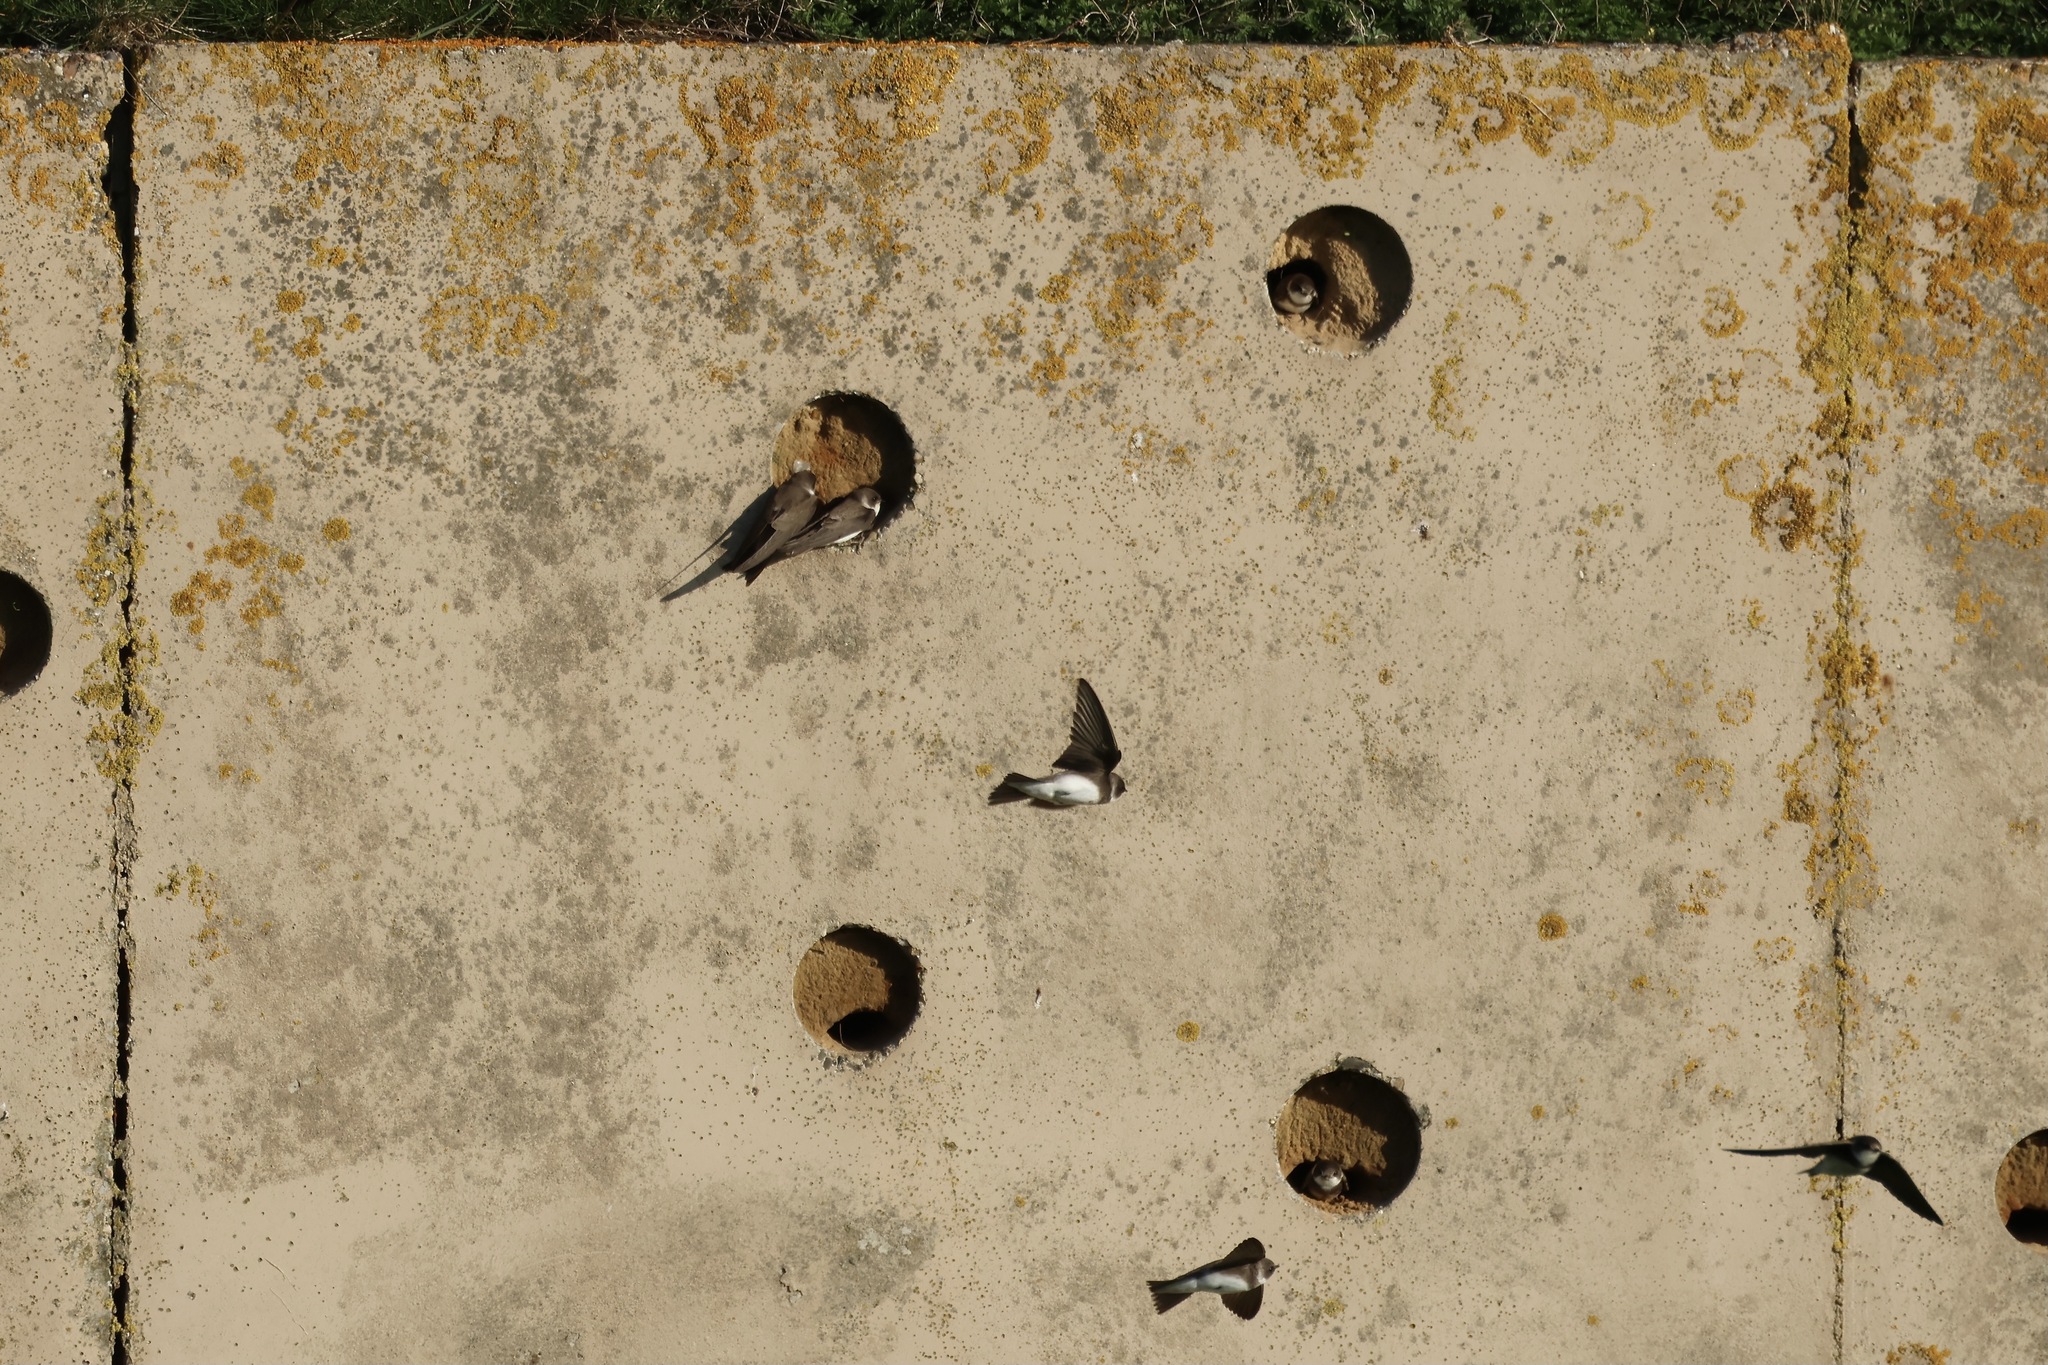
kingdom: Animalia
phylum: Chordata
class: Aves
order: Passeriformes
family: Hirundinidae
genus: Riparia
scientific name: Riparia riparia
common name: Sand martin
